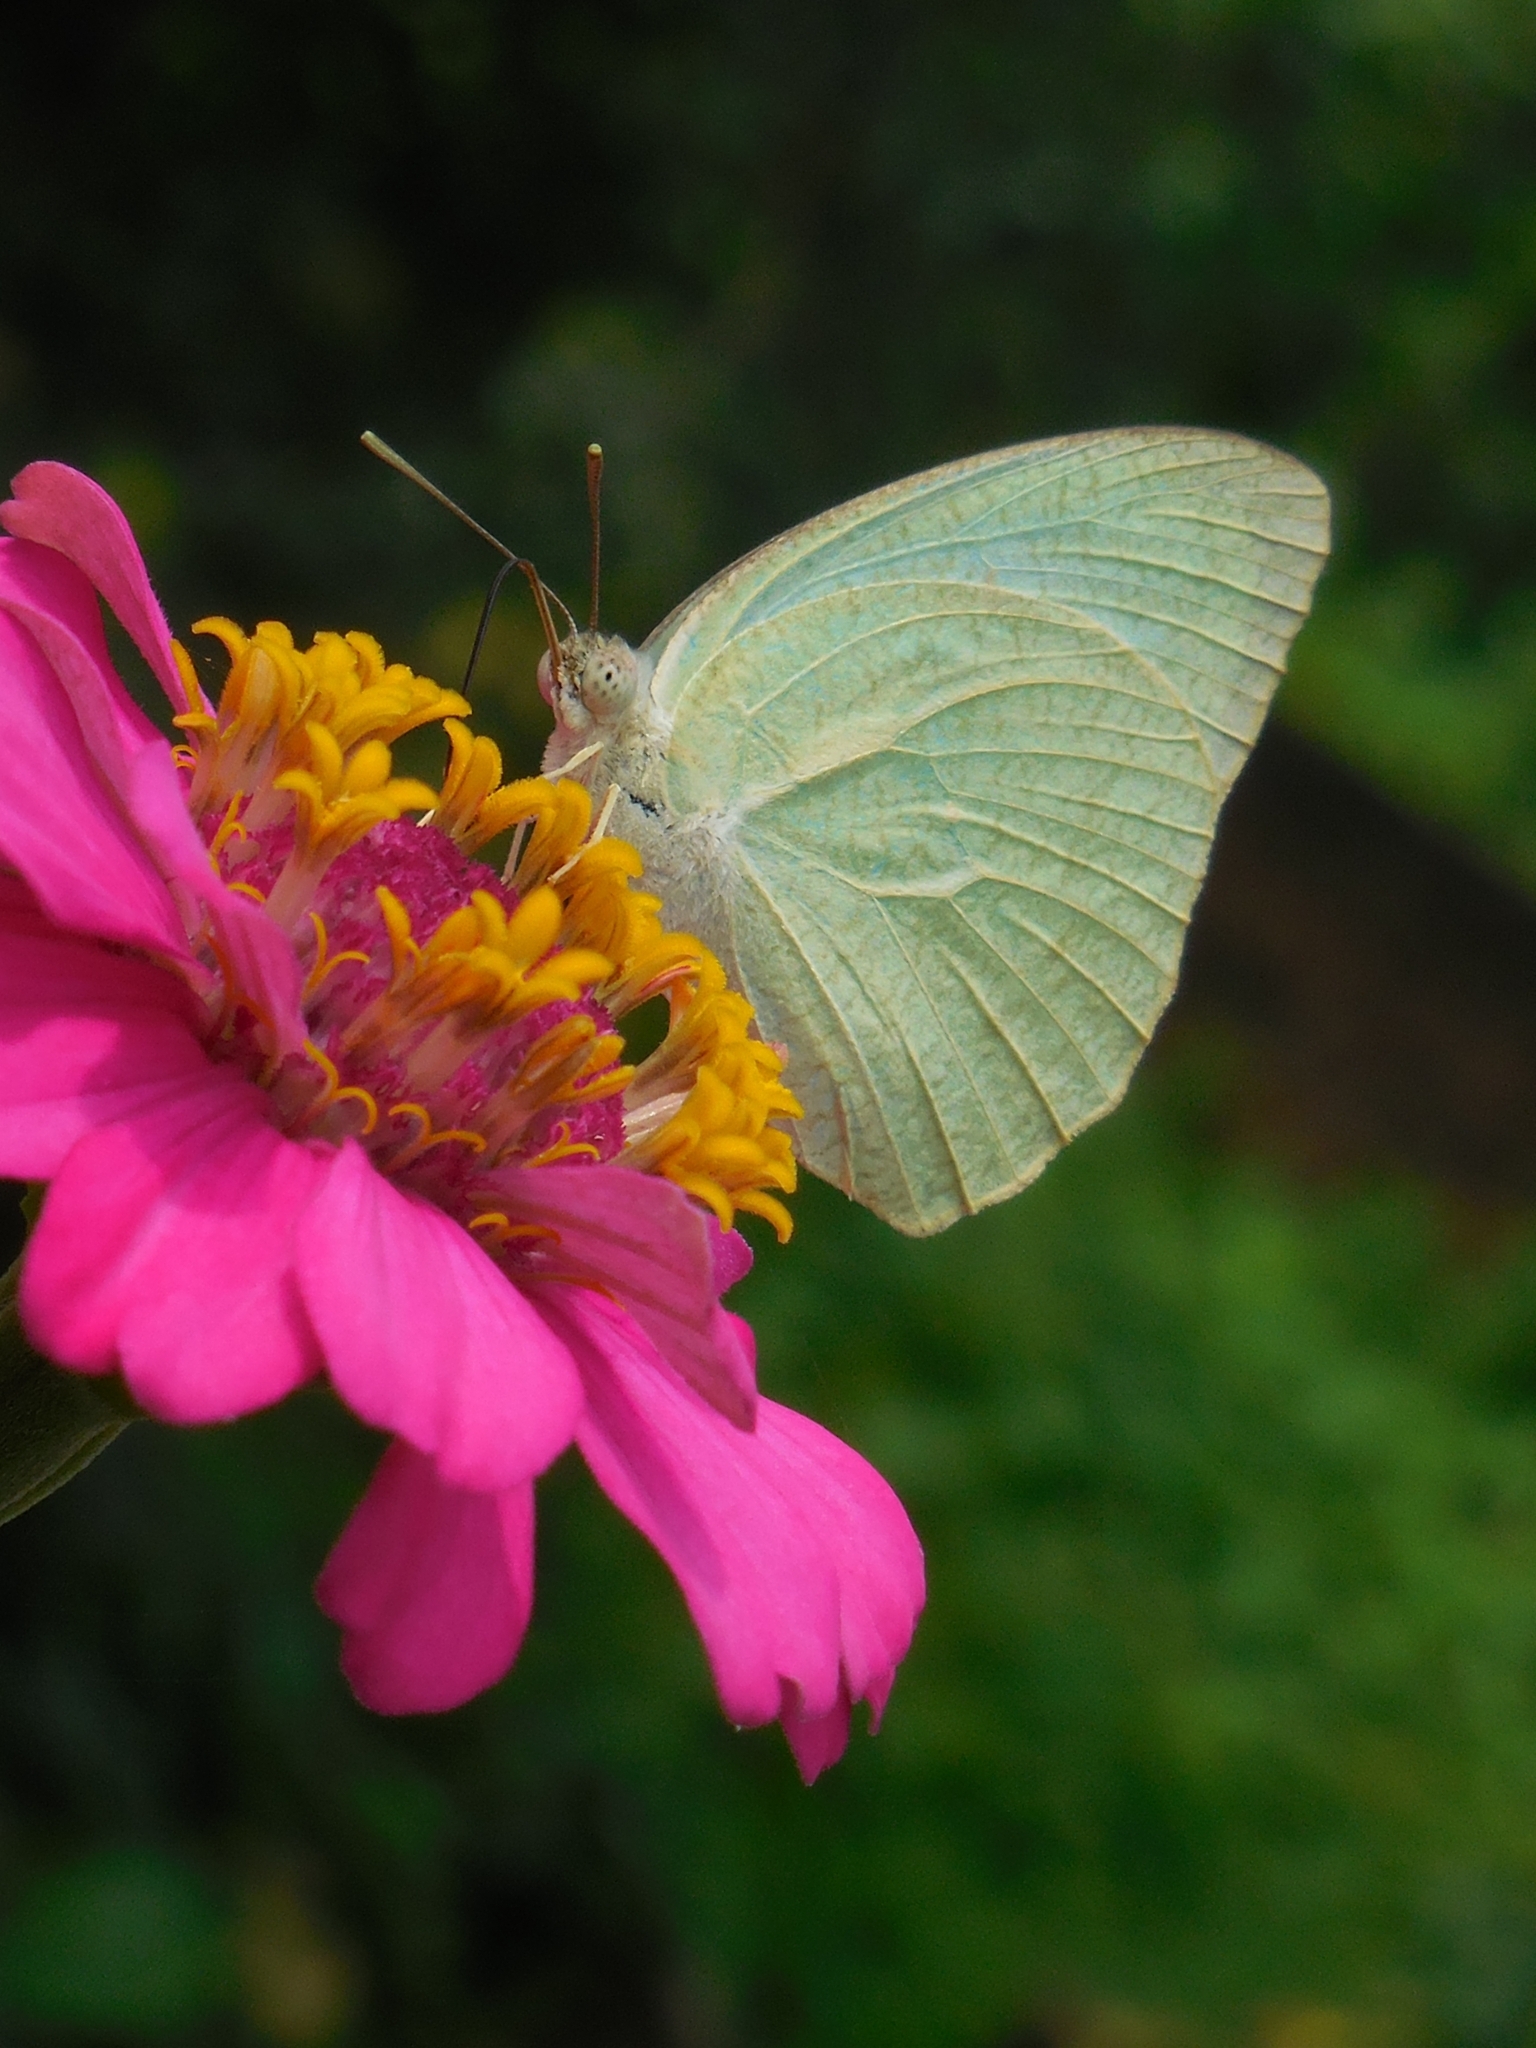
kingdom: Animalia
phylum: Arthropoda
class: Insecta
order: Lepidoptera
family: Pieridae
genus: Catopsilia
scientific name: Catopsilia pyranthe
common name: Mottled emigrant
